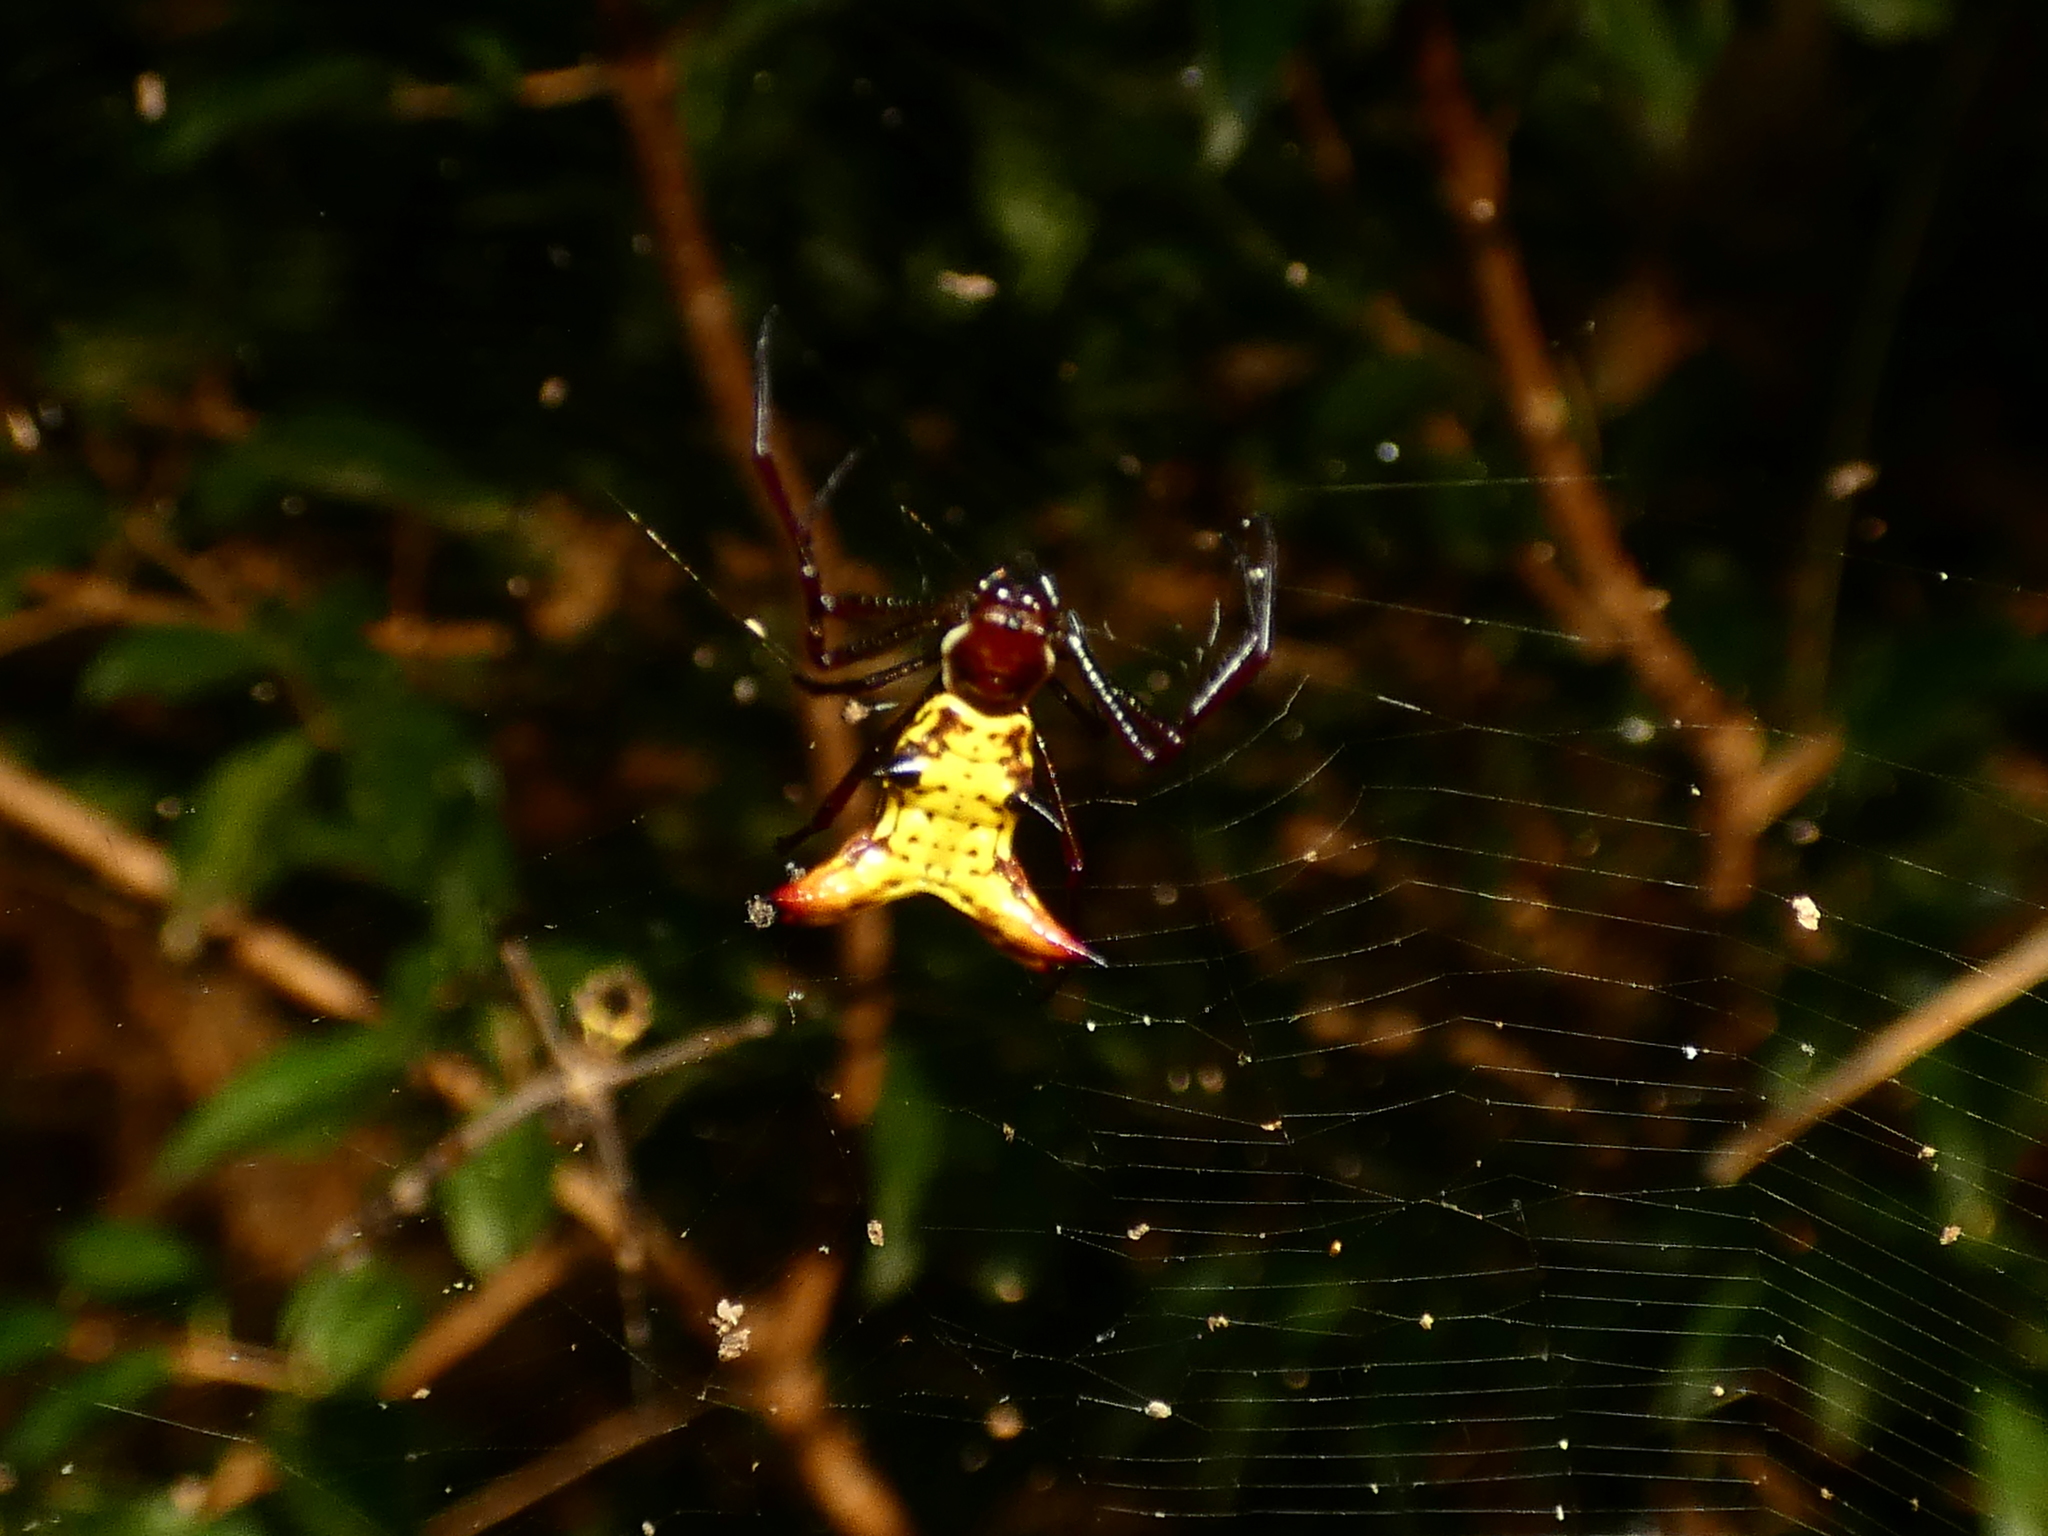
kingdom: Animalia
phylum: Arthropoda
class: Arachnida
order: Araneae
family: Araneidae
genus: Micrathena
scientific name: Micrathena fissispina
